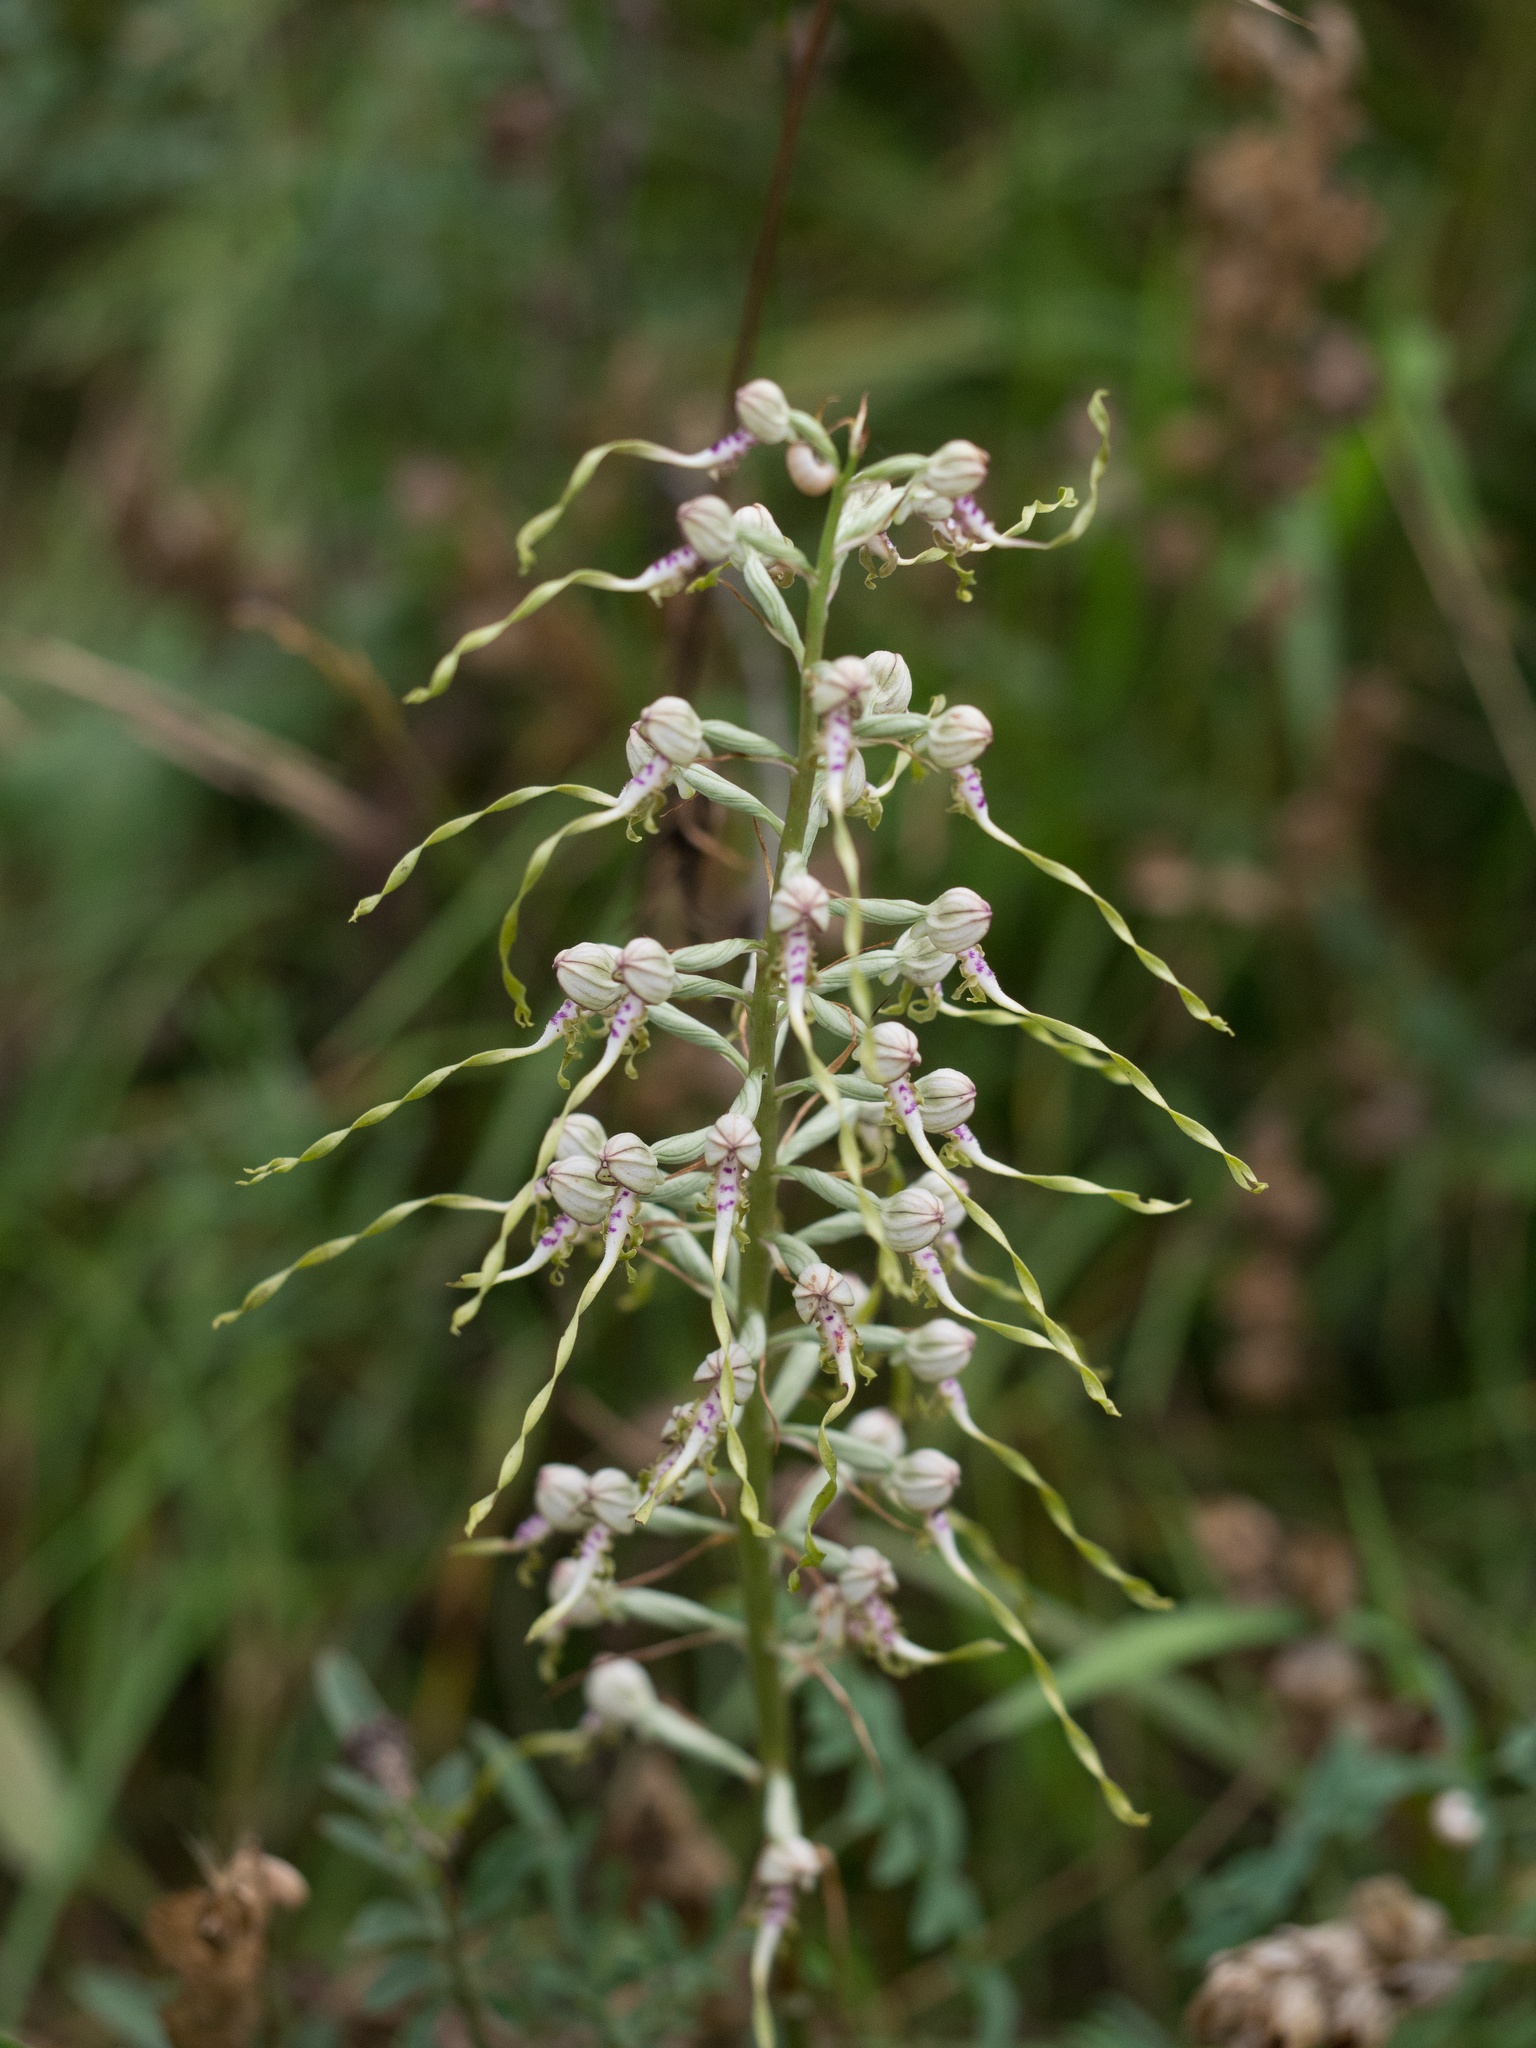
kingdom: Plantae
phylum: Tracheophyta
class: Liliopsida
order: Asparagales
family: Orchidaceae
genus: Himantoglossum
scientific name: Himantoglossum adriaticum
